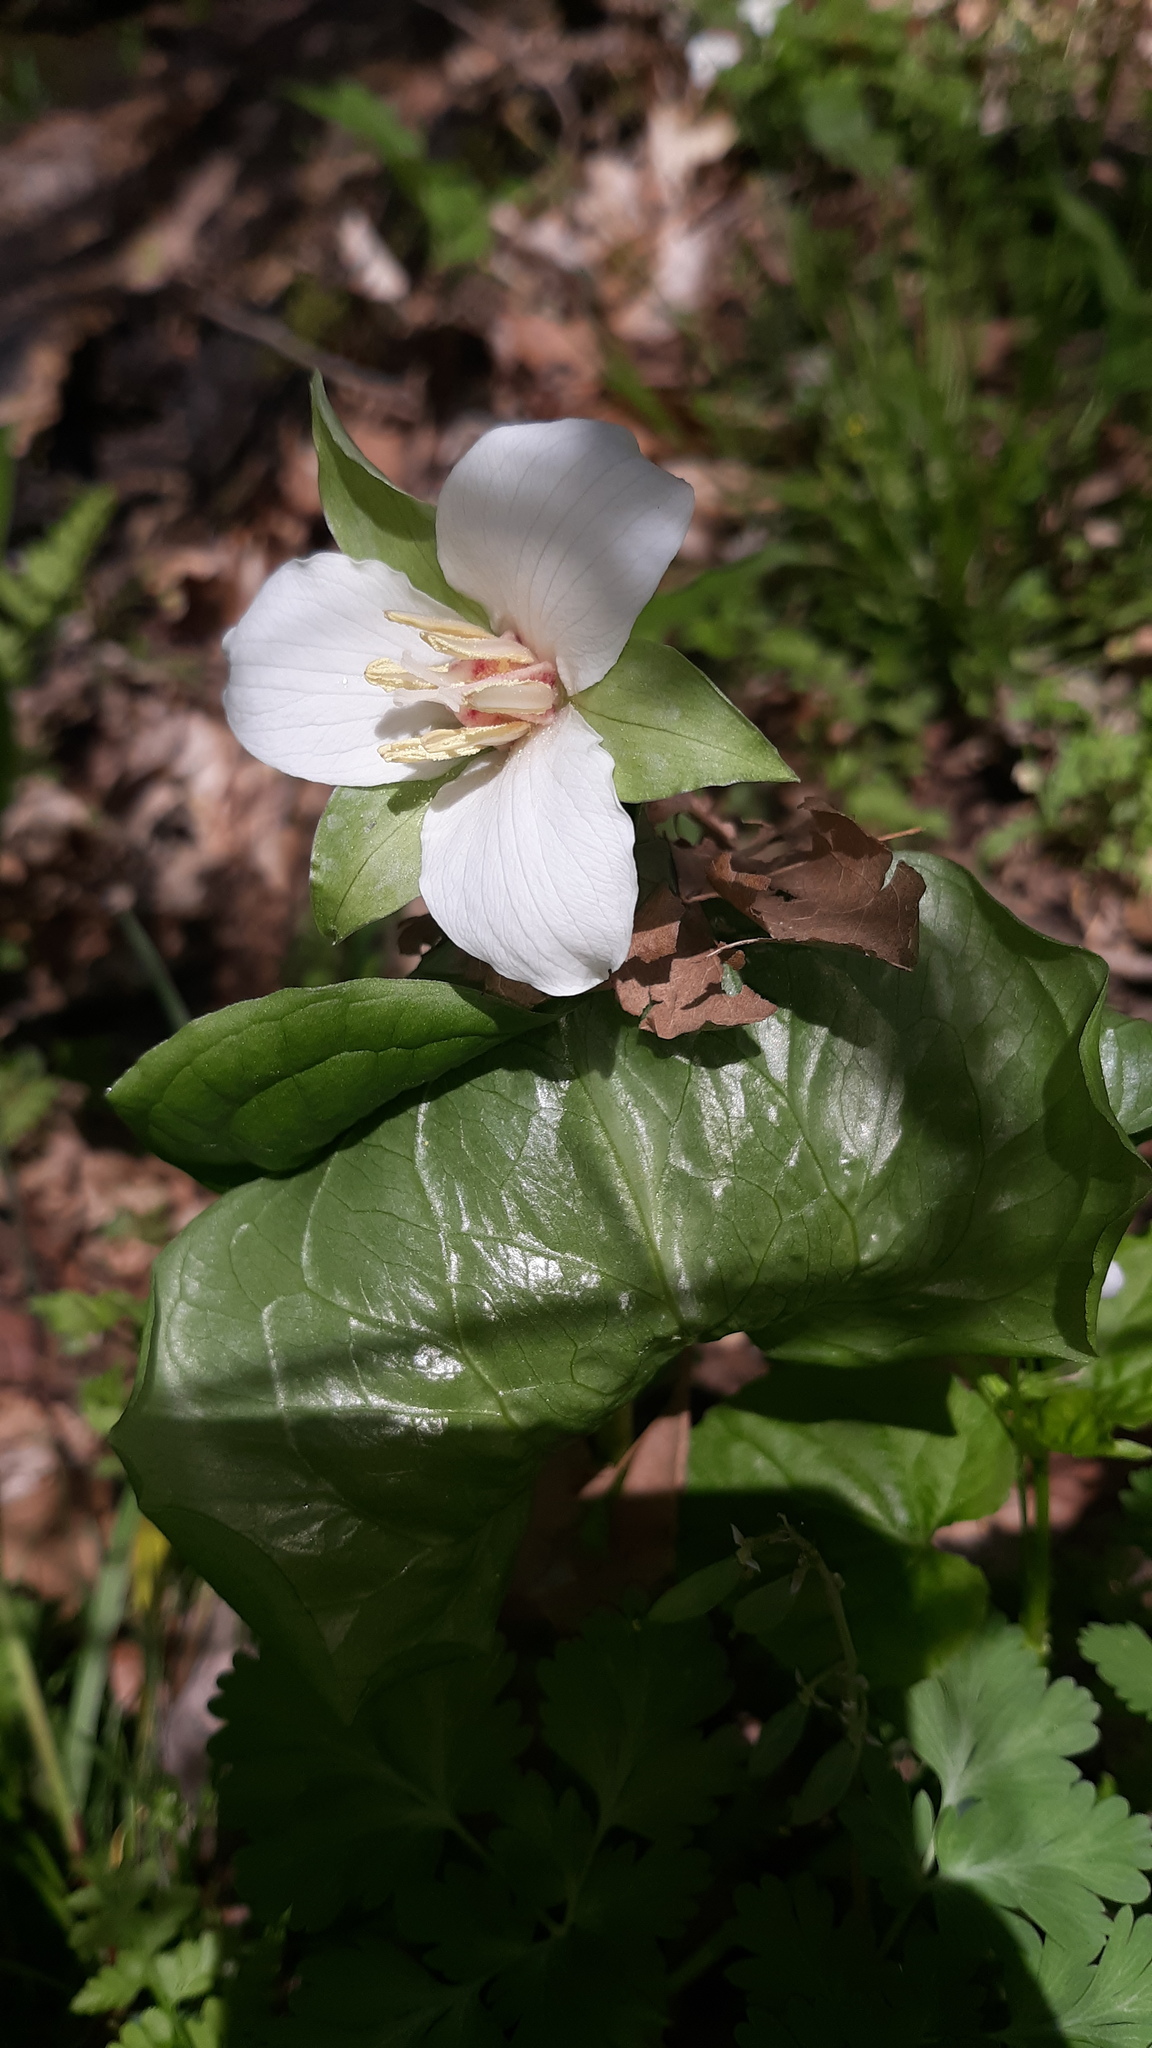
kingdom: Plantae
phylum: Tracheophyta
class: Liliopsida
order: Liliales
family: Melanthiaceae
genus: Trillium
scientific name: Trillium flexipes
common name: Drooping trillium
